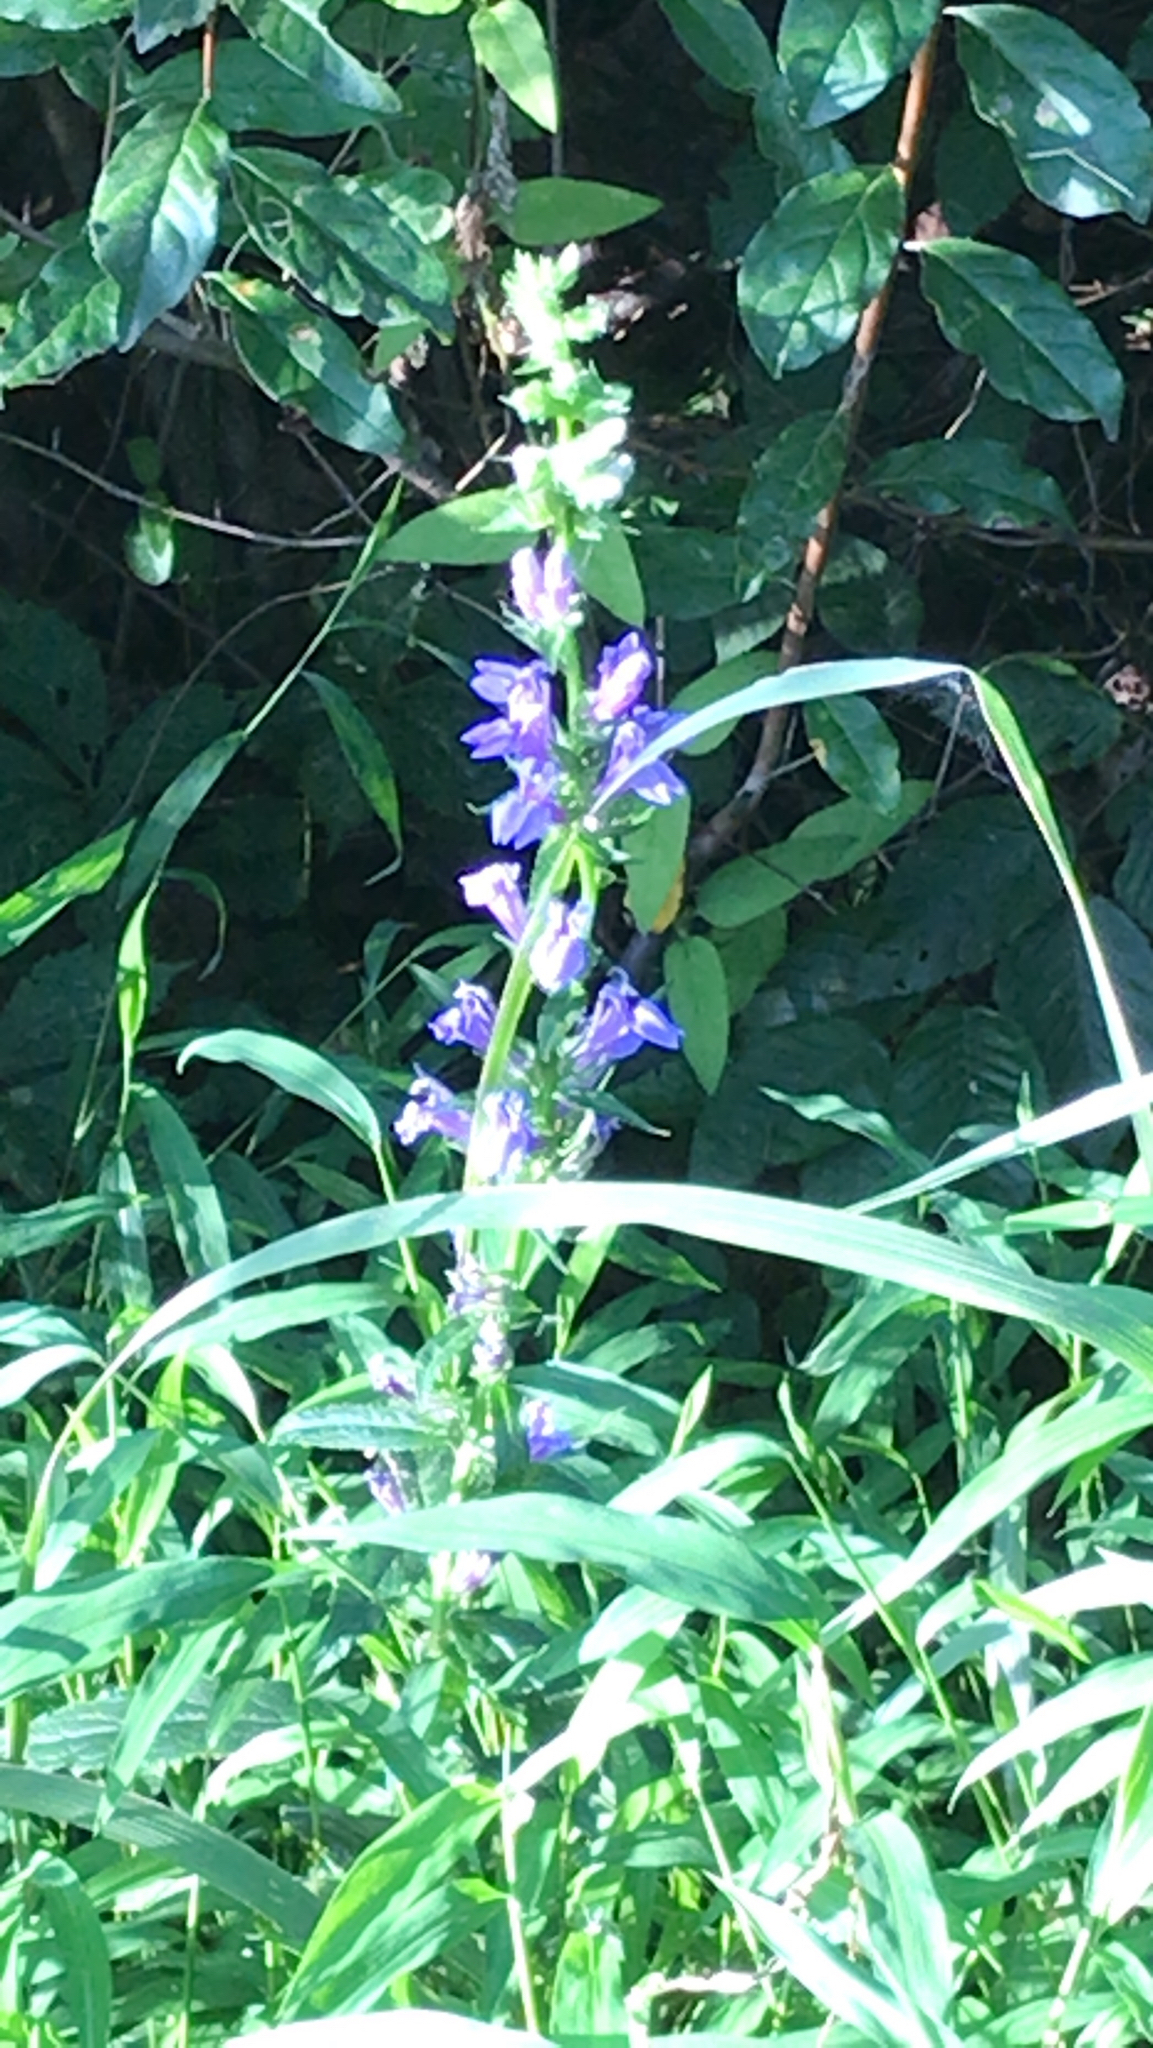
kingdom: Plantae
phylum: Tracheophyta
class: Magnoliopsida
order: Asterales
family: Campanulaceae
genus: Lobelia
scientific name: Lobelia siphilitica
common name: Great lobelia
